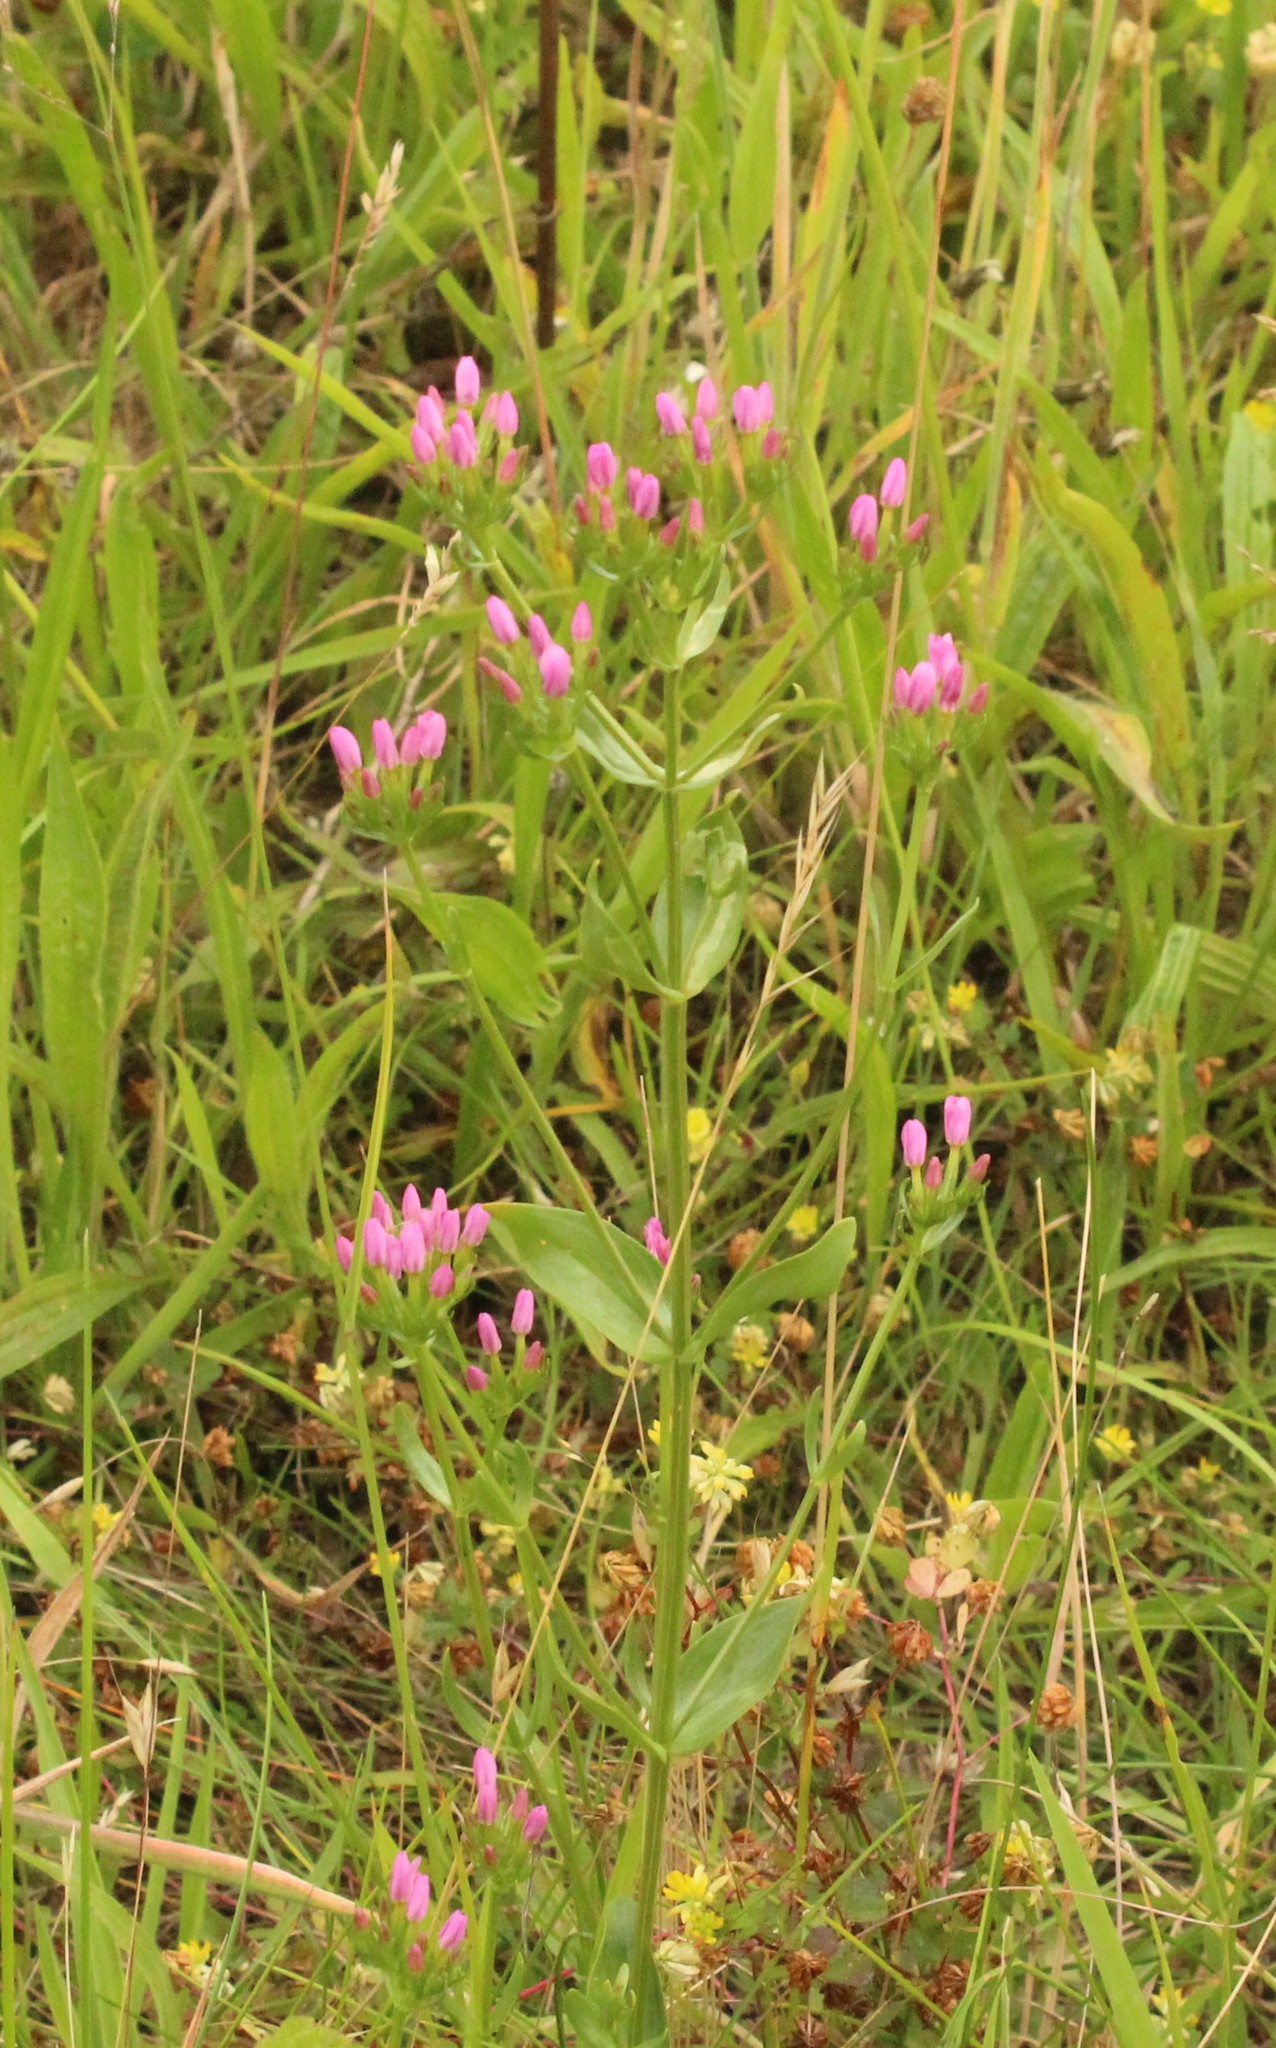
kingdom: Plantae
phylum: Tracheophyta
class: Magnoliopsida
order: Gentianales
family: Gentianaceae
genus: Centaurium
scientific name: Centaurium erythraea
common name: Common centaury
